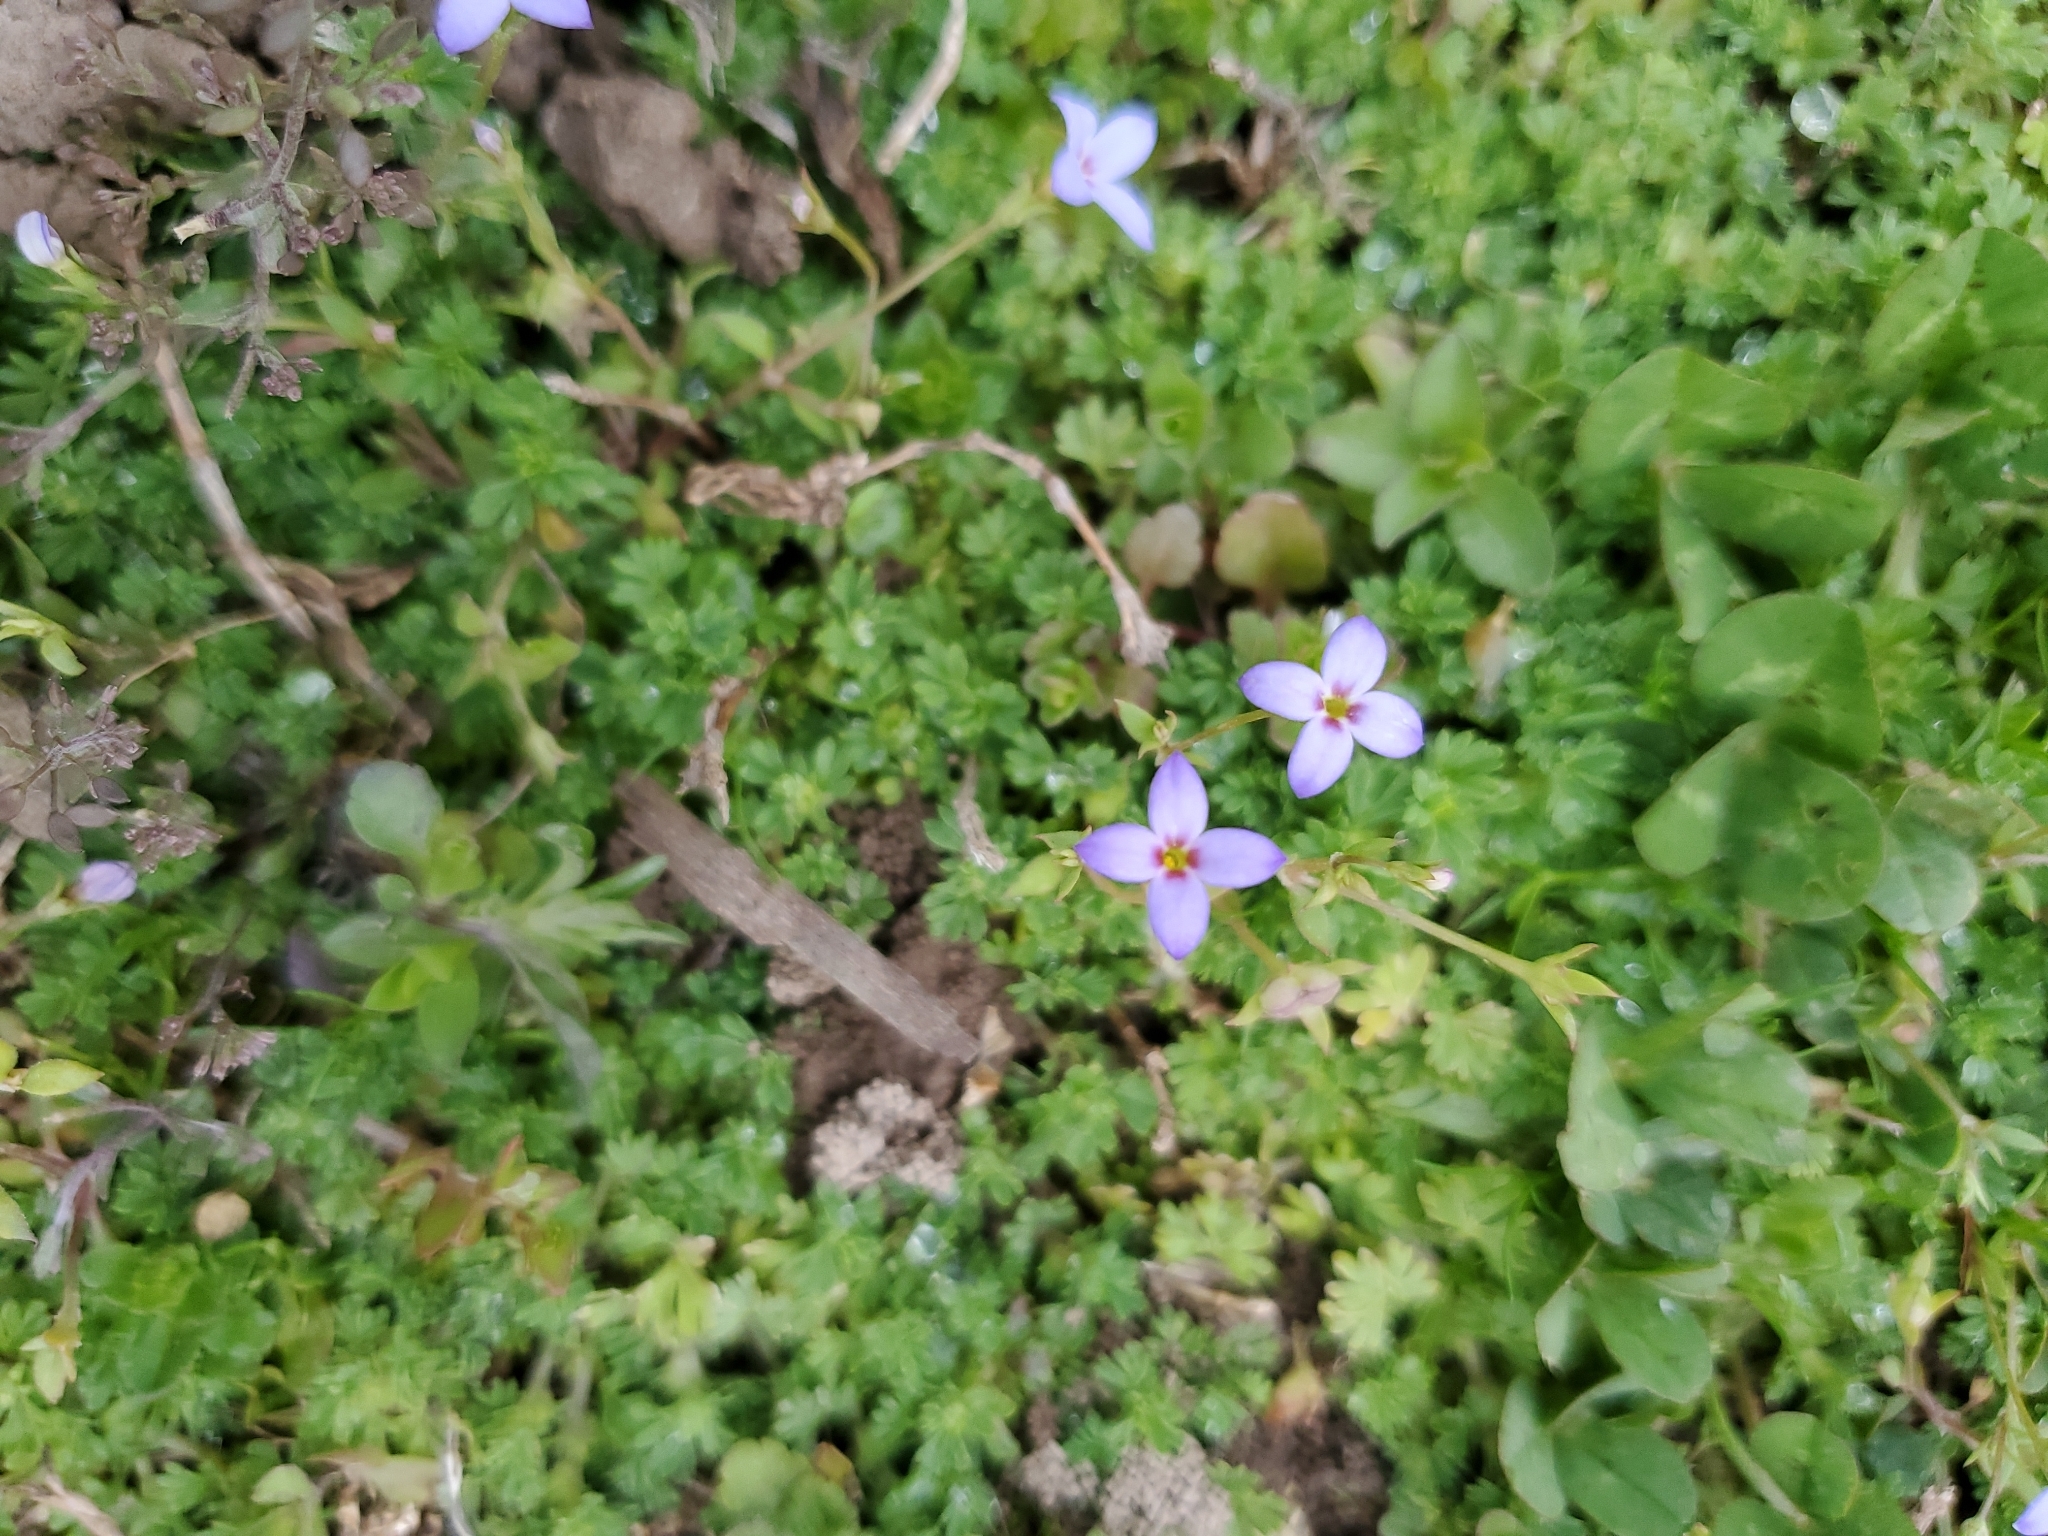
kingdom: Plantae
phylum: Tracheophyta
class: Magnoliopsida
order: Gentianales
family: Rubiaceae
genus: Houstonia
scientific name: Houstonia pusilla
